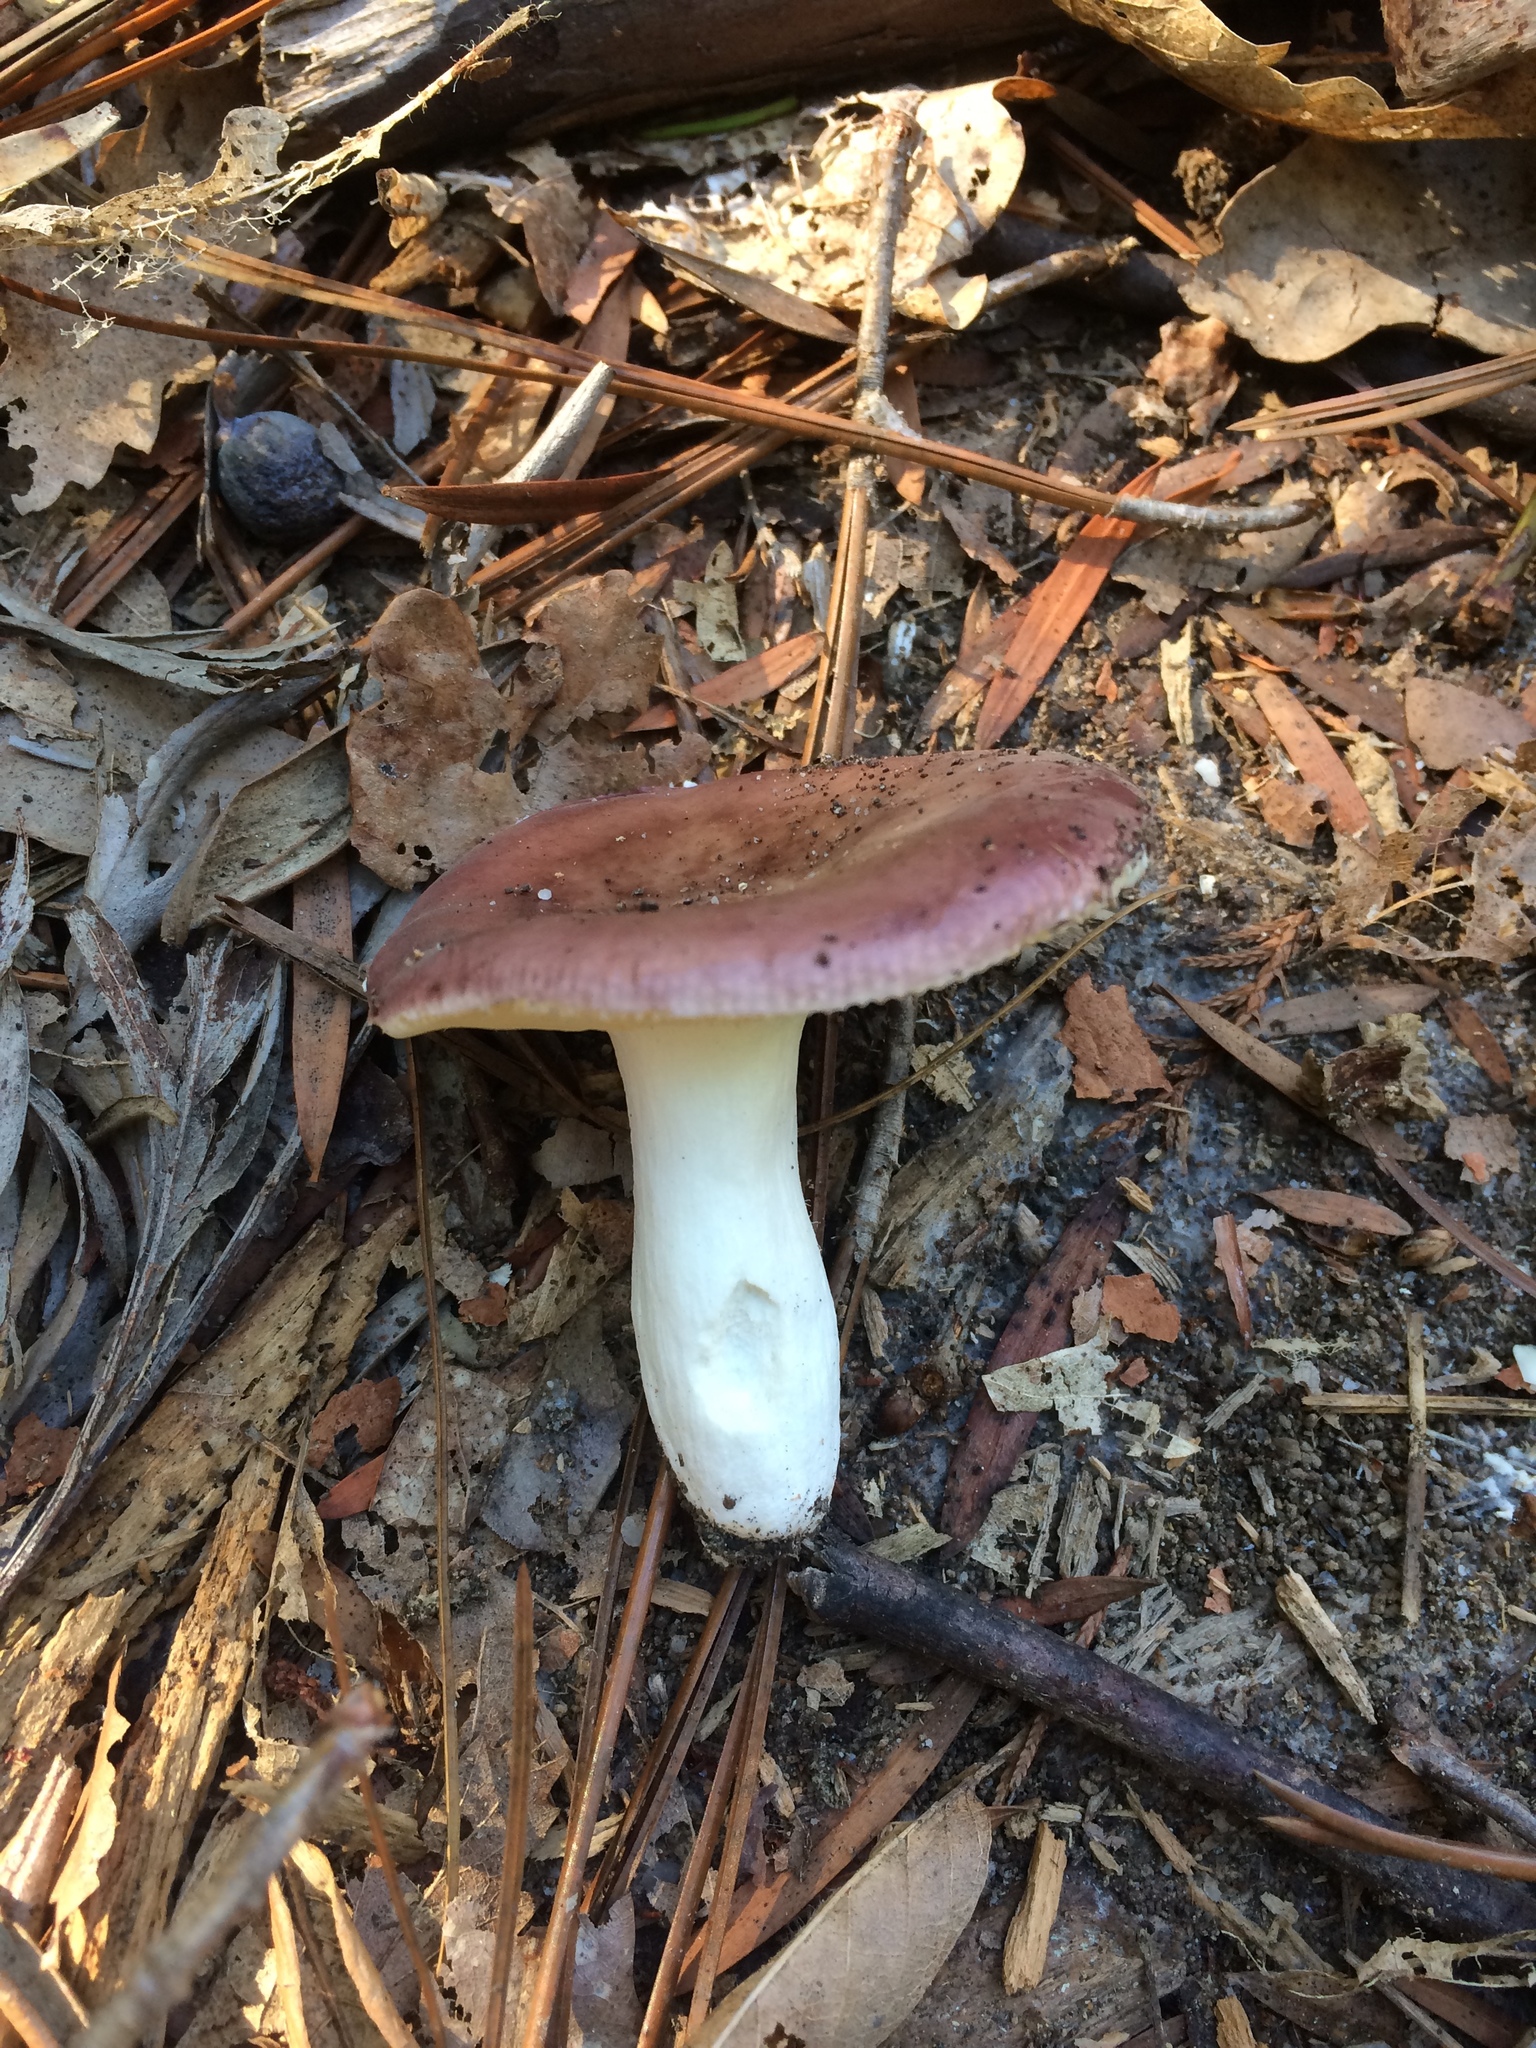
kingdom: Fungi
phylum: Basidiomycota
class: Agaricomycetes
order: Russulales
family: Russulaceae
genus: Russula
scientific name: Russula capensis
